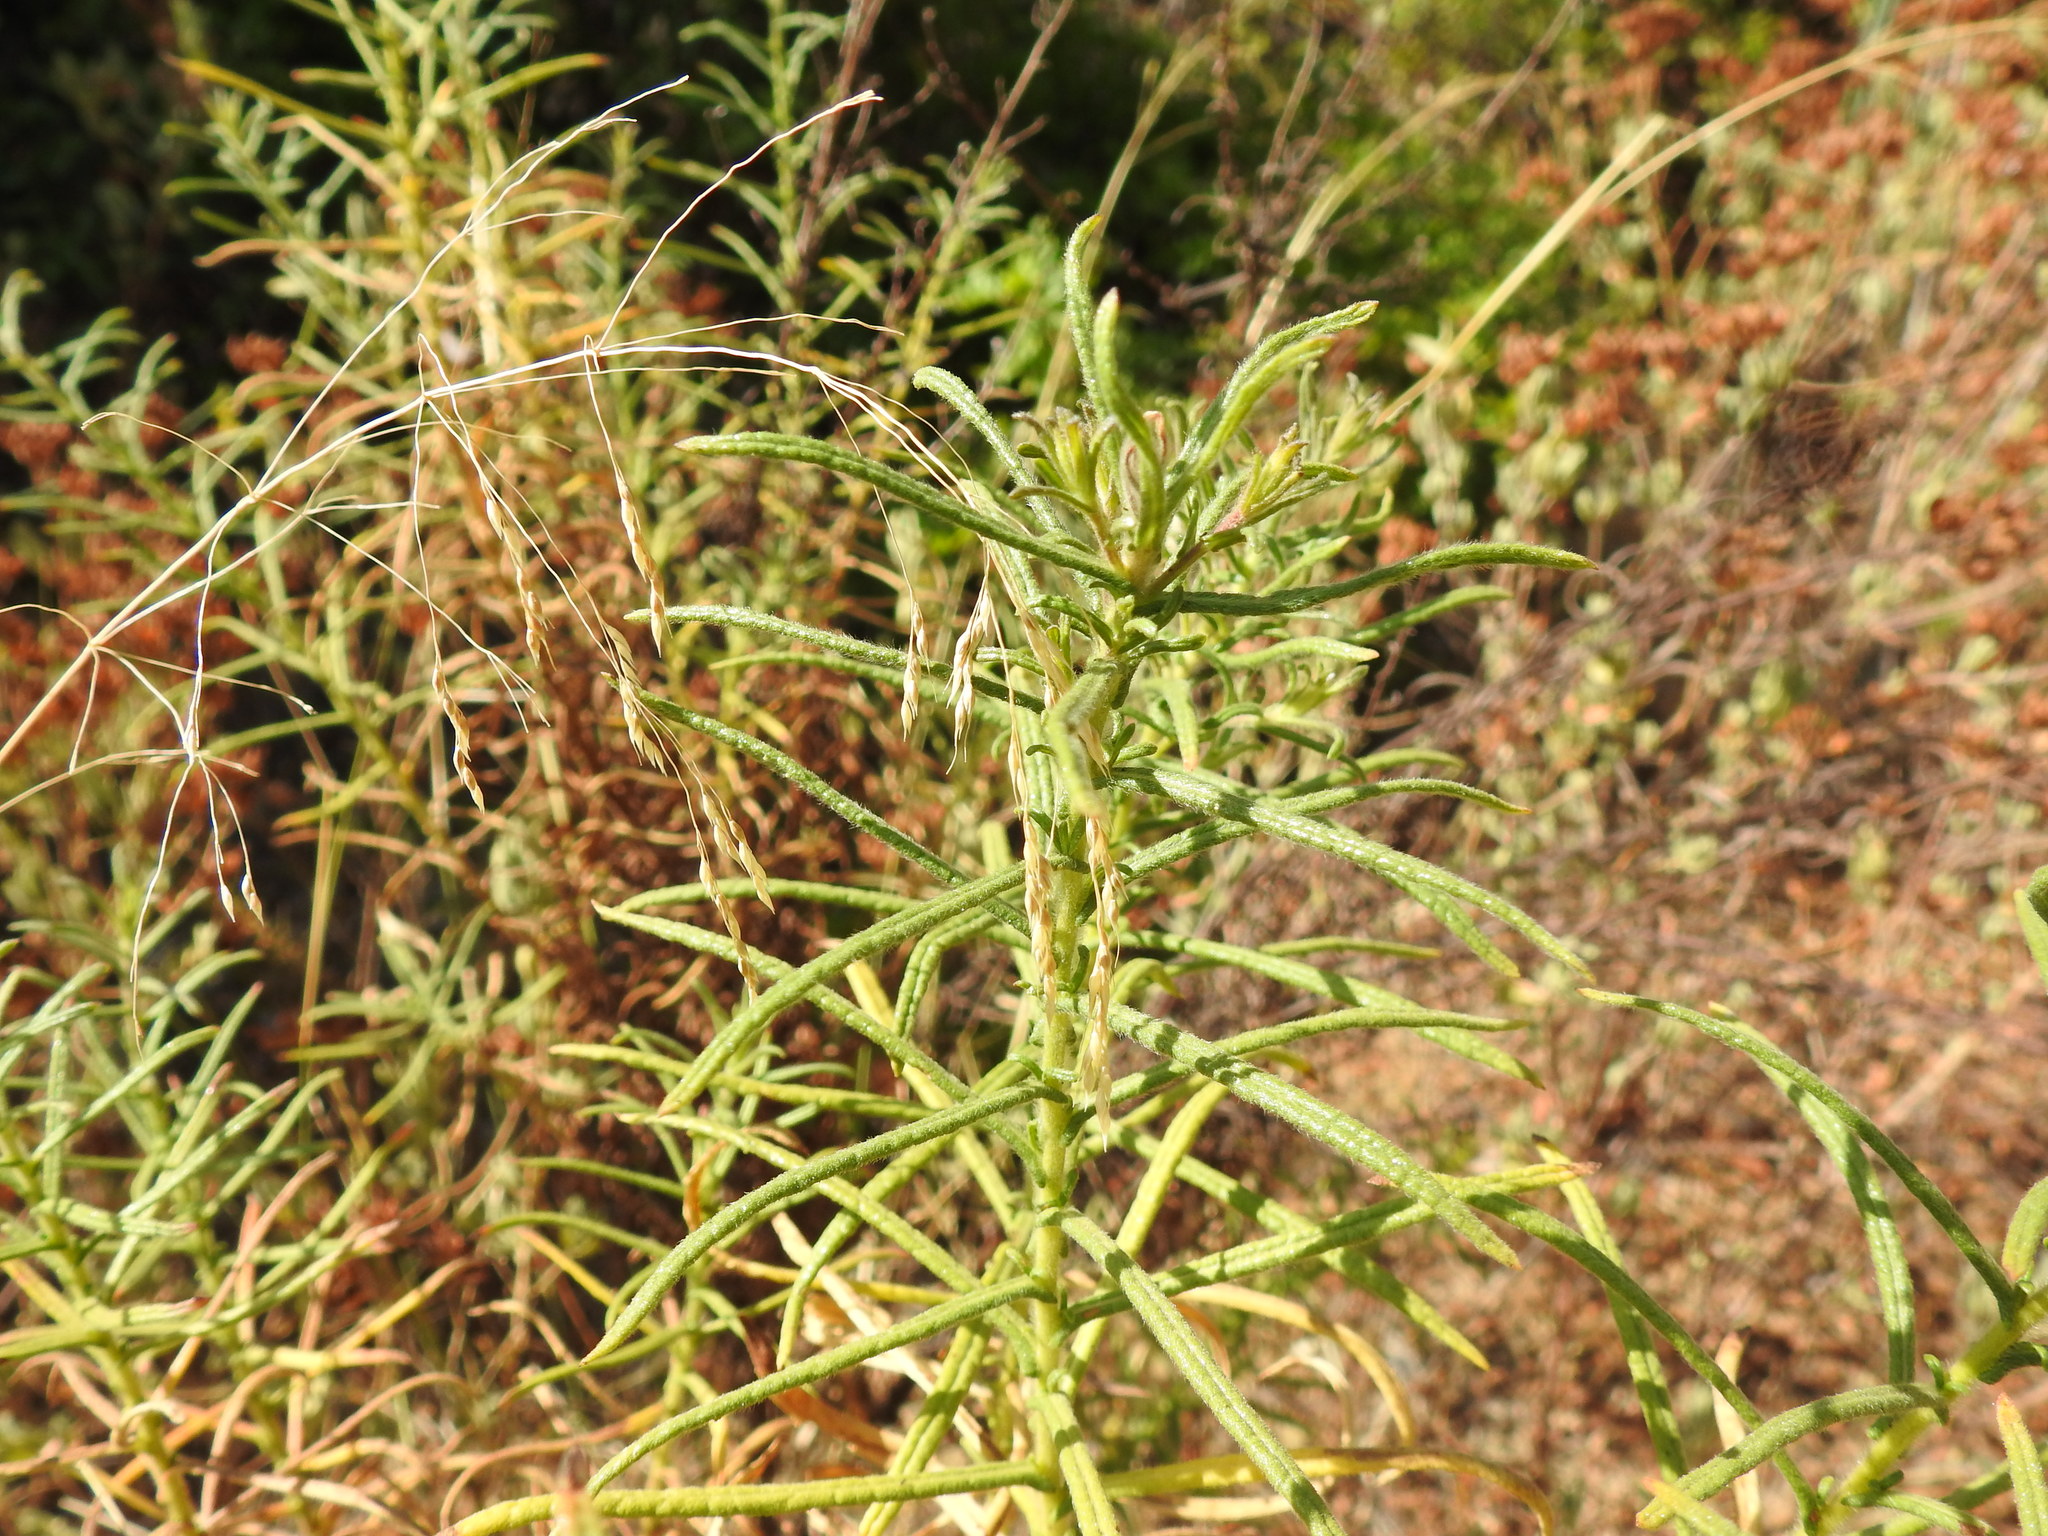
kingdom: Plantae
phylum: Tracheophyta
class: Magnoliopsida
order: Asterales
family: Asteraceae
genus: Dittrichia
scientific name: Dittrichia viscosa
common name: Woody fleabane
